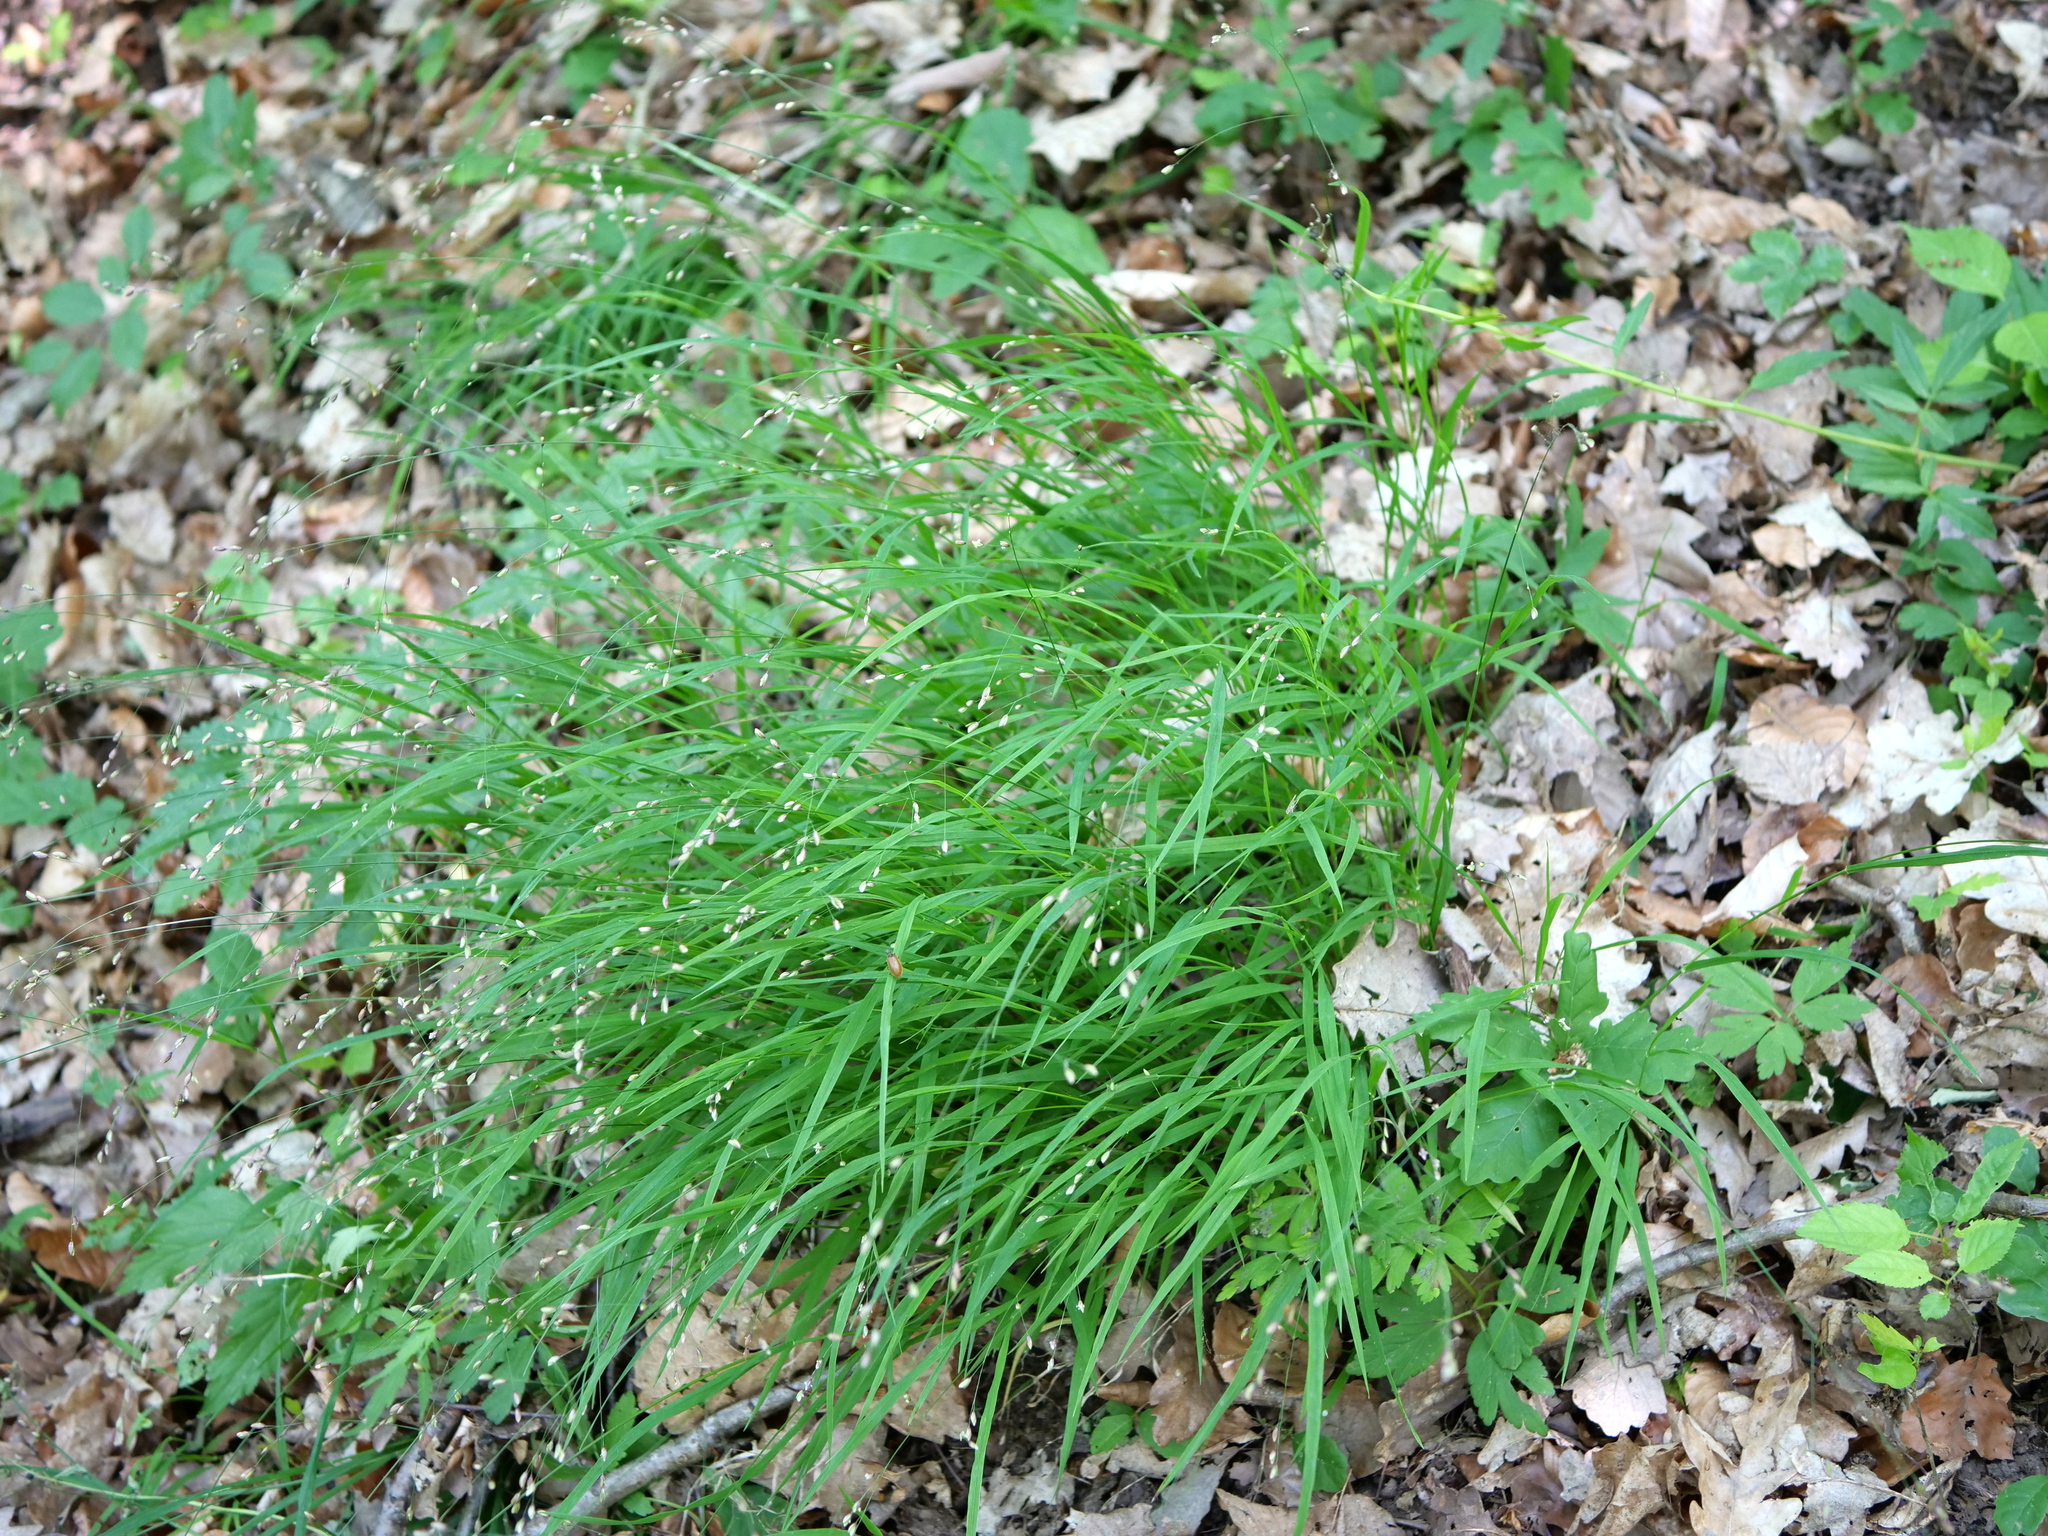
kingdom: Plantae
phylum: Tracheophyta
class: Liliopsida
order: Poales
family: Poaceae
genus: Melica
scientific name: Melica uniflora
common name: Wood melick
